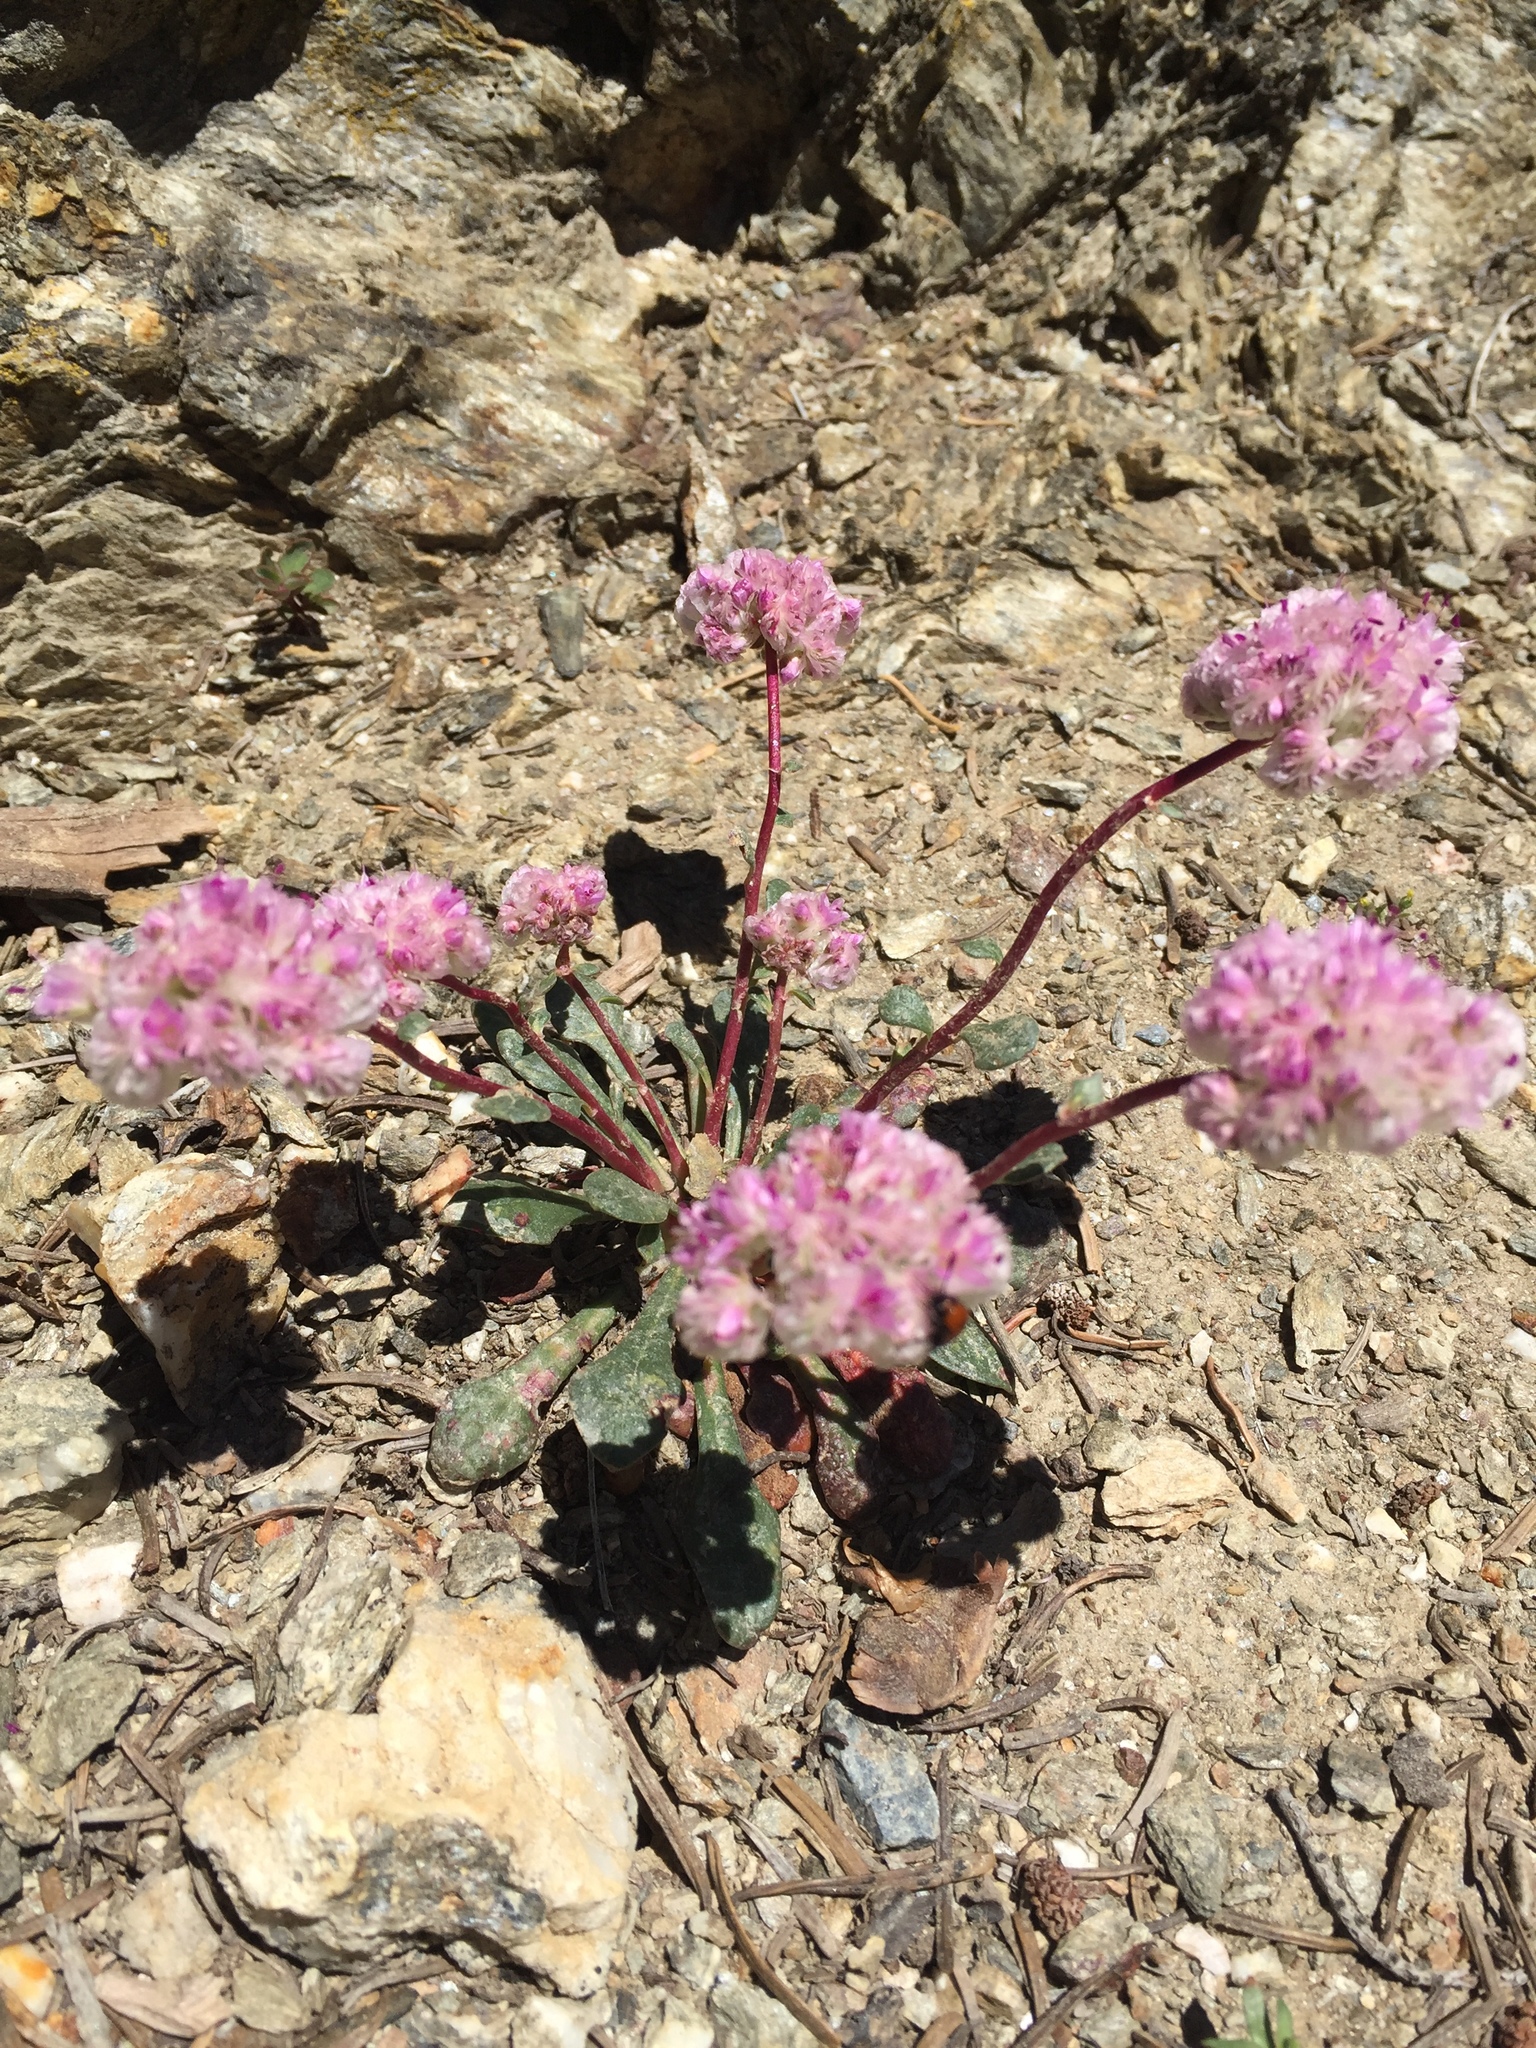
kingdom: Plantae
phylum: Tracheophyta
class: Magnoliopsida
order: Caryophyllales
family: Montiaceae
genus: Calyptridium
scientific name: Calyptridium monospermum
